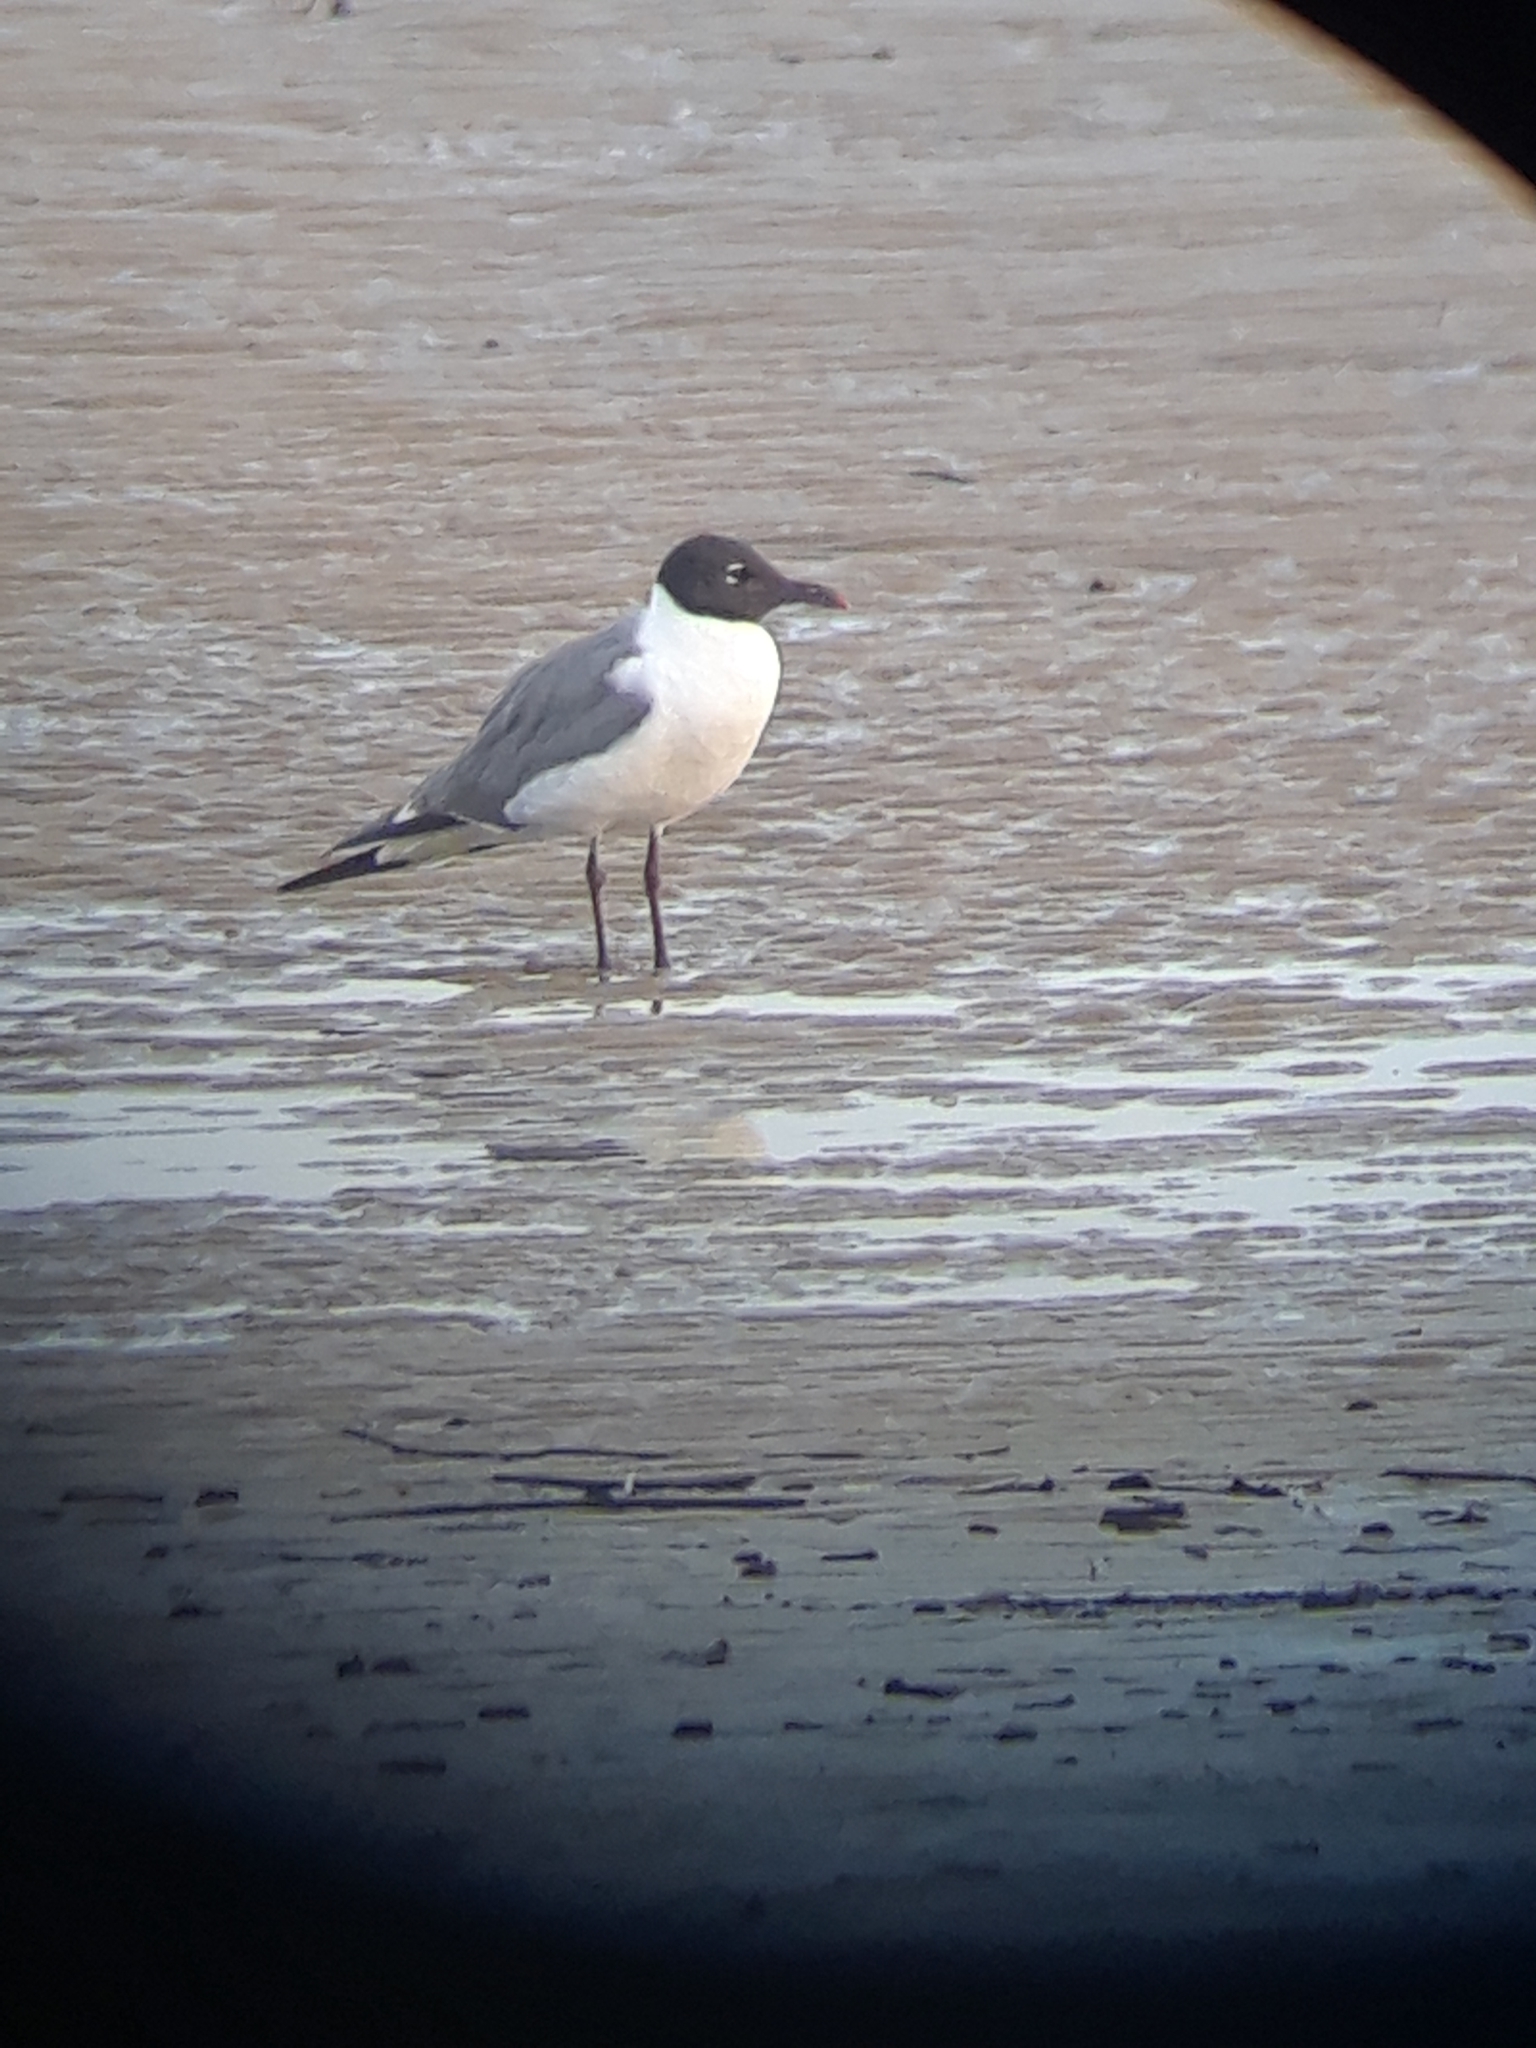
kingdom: Animalia
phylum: Chordata
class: Aves
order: Charadriiformes
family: Laridae
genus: Leucophaeus
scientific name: Leucophaeus atricilla
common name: Laughing gull
